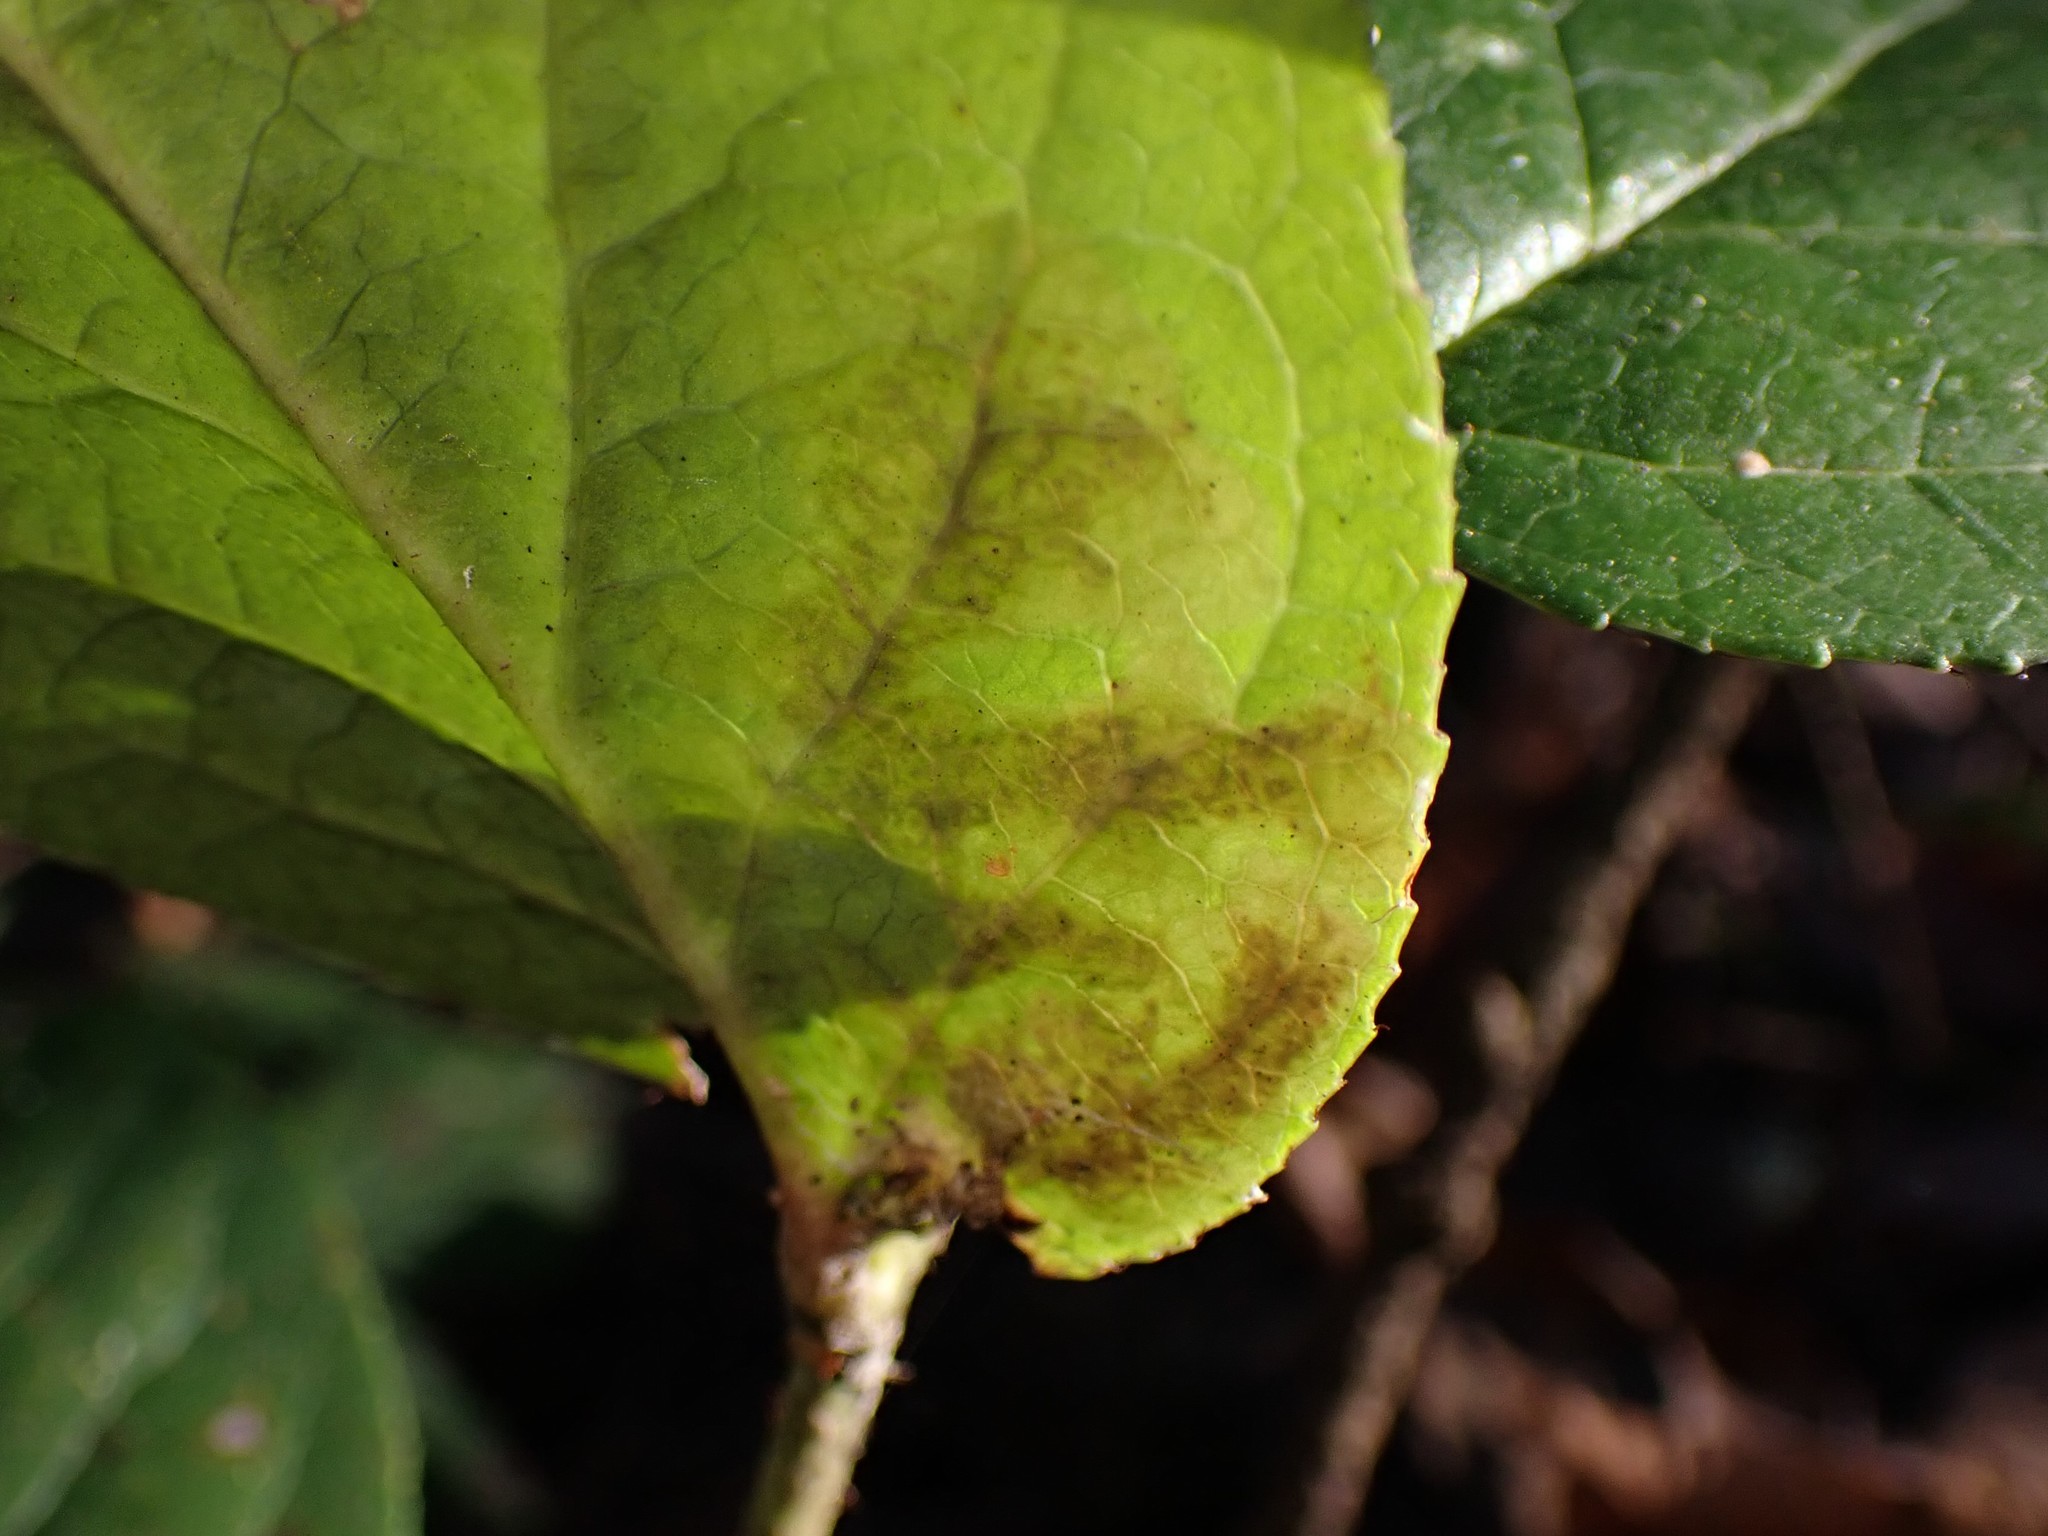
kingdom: Animalia
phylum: Arthropoda
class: Insecta
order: Lepidoptera
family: Gracillariidae
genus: Cameraria
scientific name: Cameraria gaultheriella
